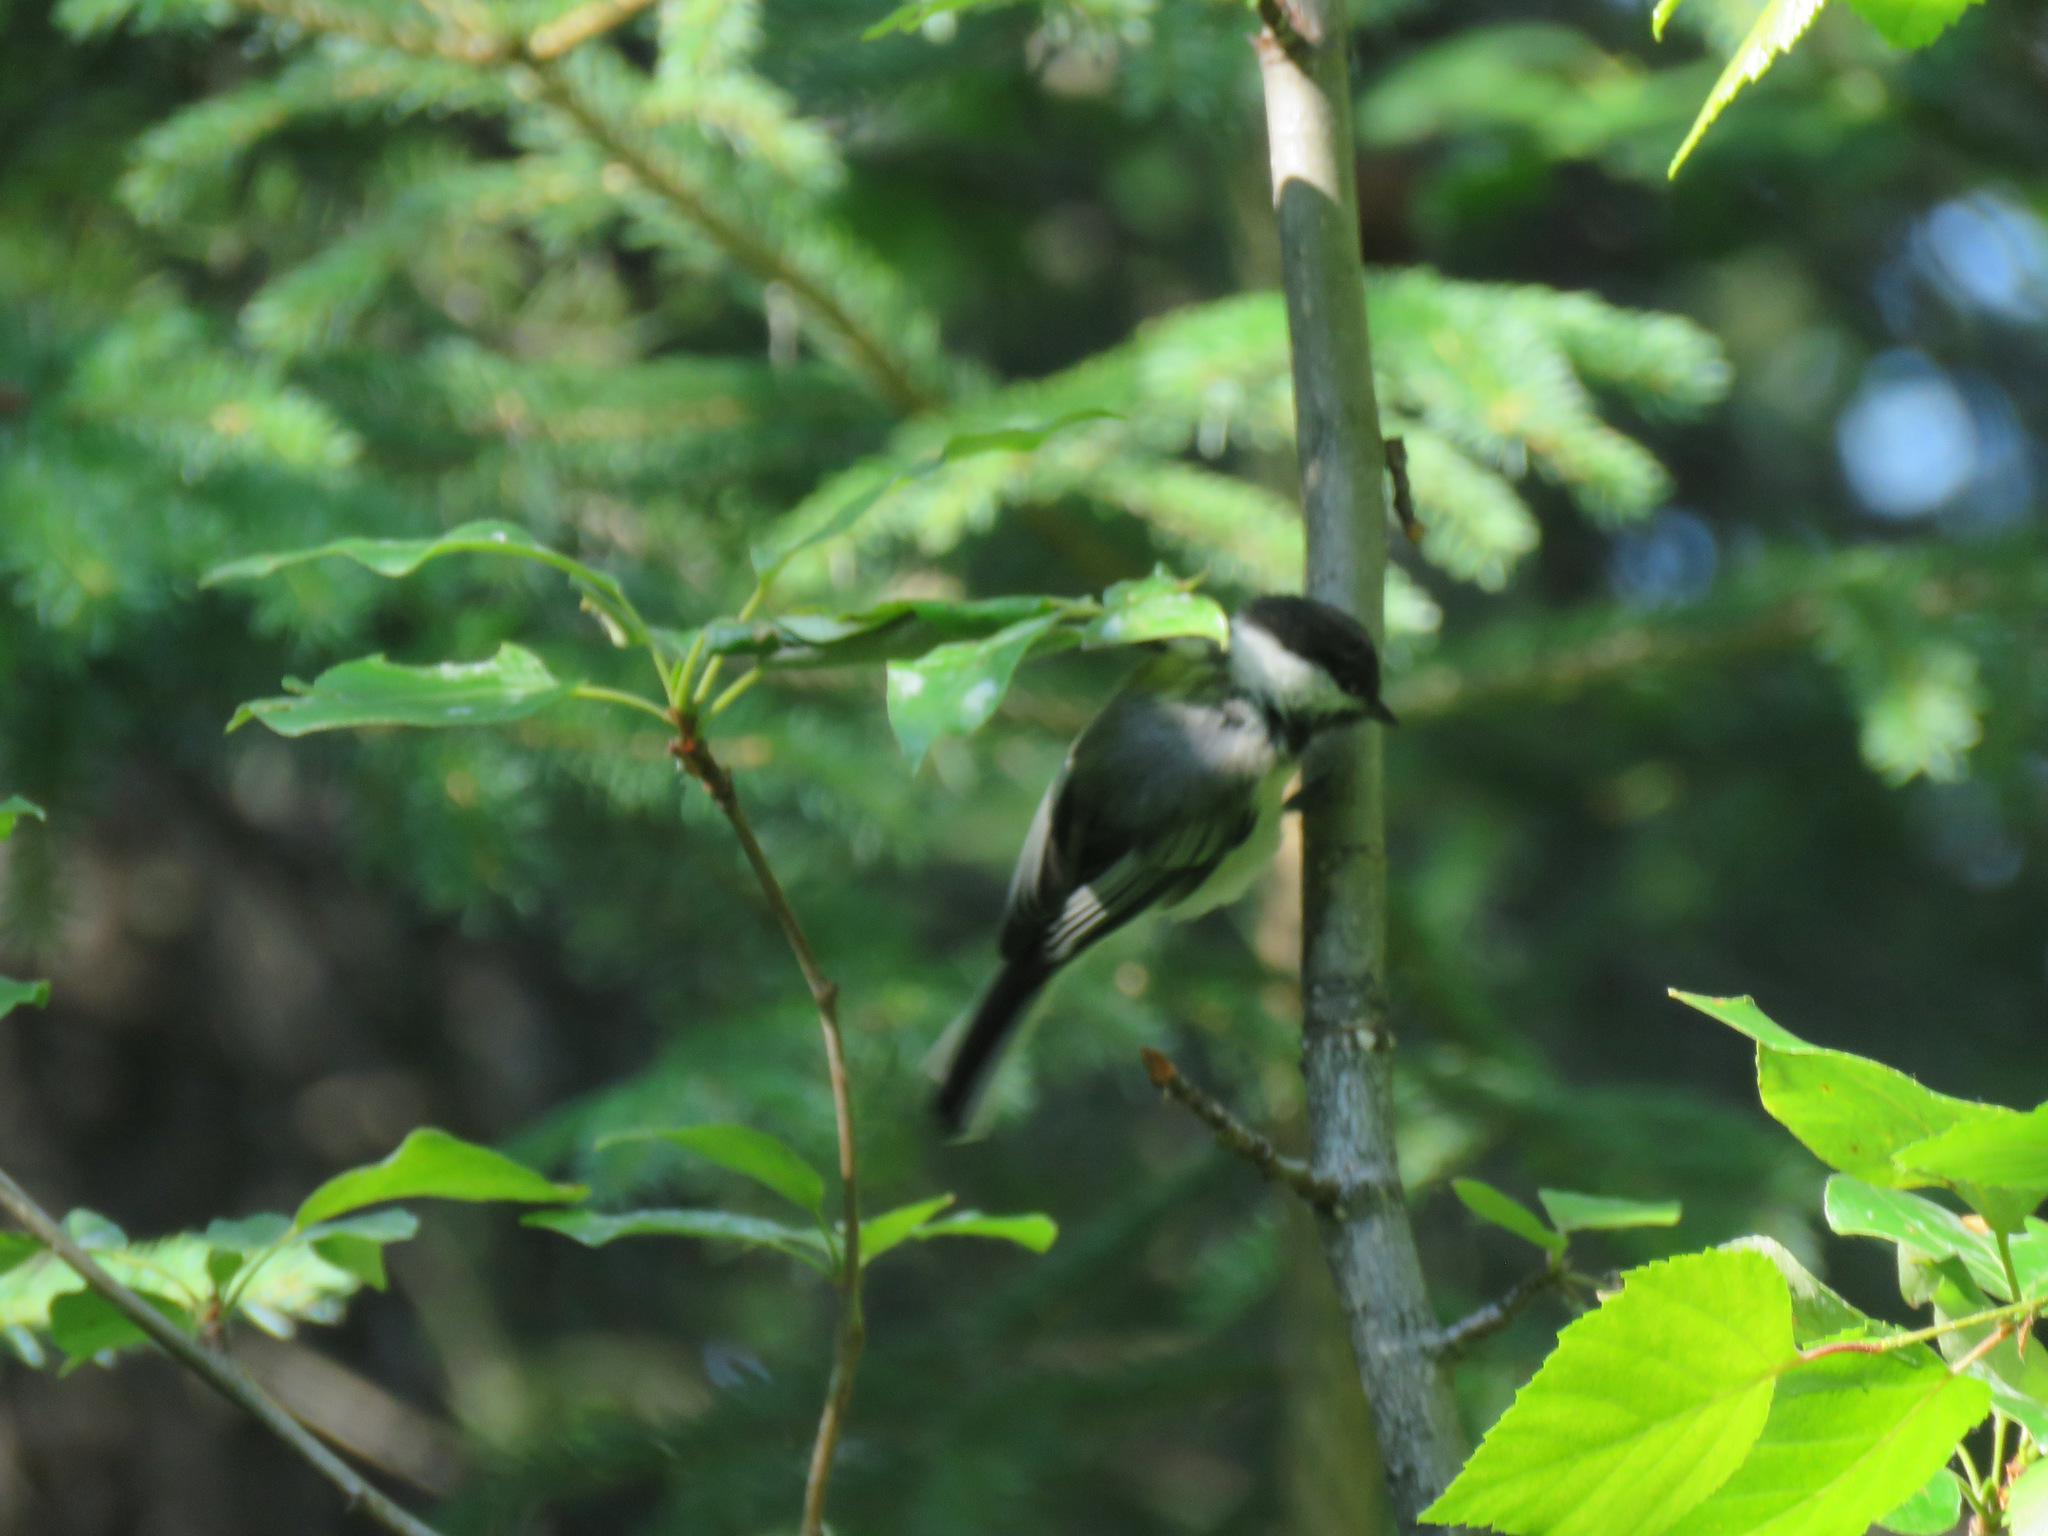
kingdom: Animalia
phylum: Chordata
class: Aves
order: Passeriformes
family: Paridae
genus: Poecile
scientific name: Poecile atricapillus
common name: Black-capped chickadee
